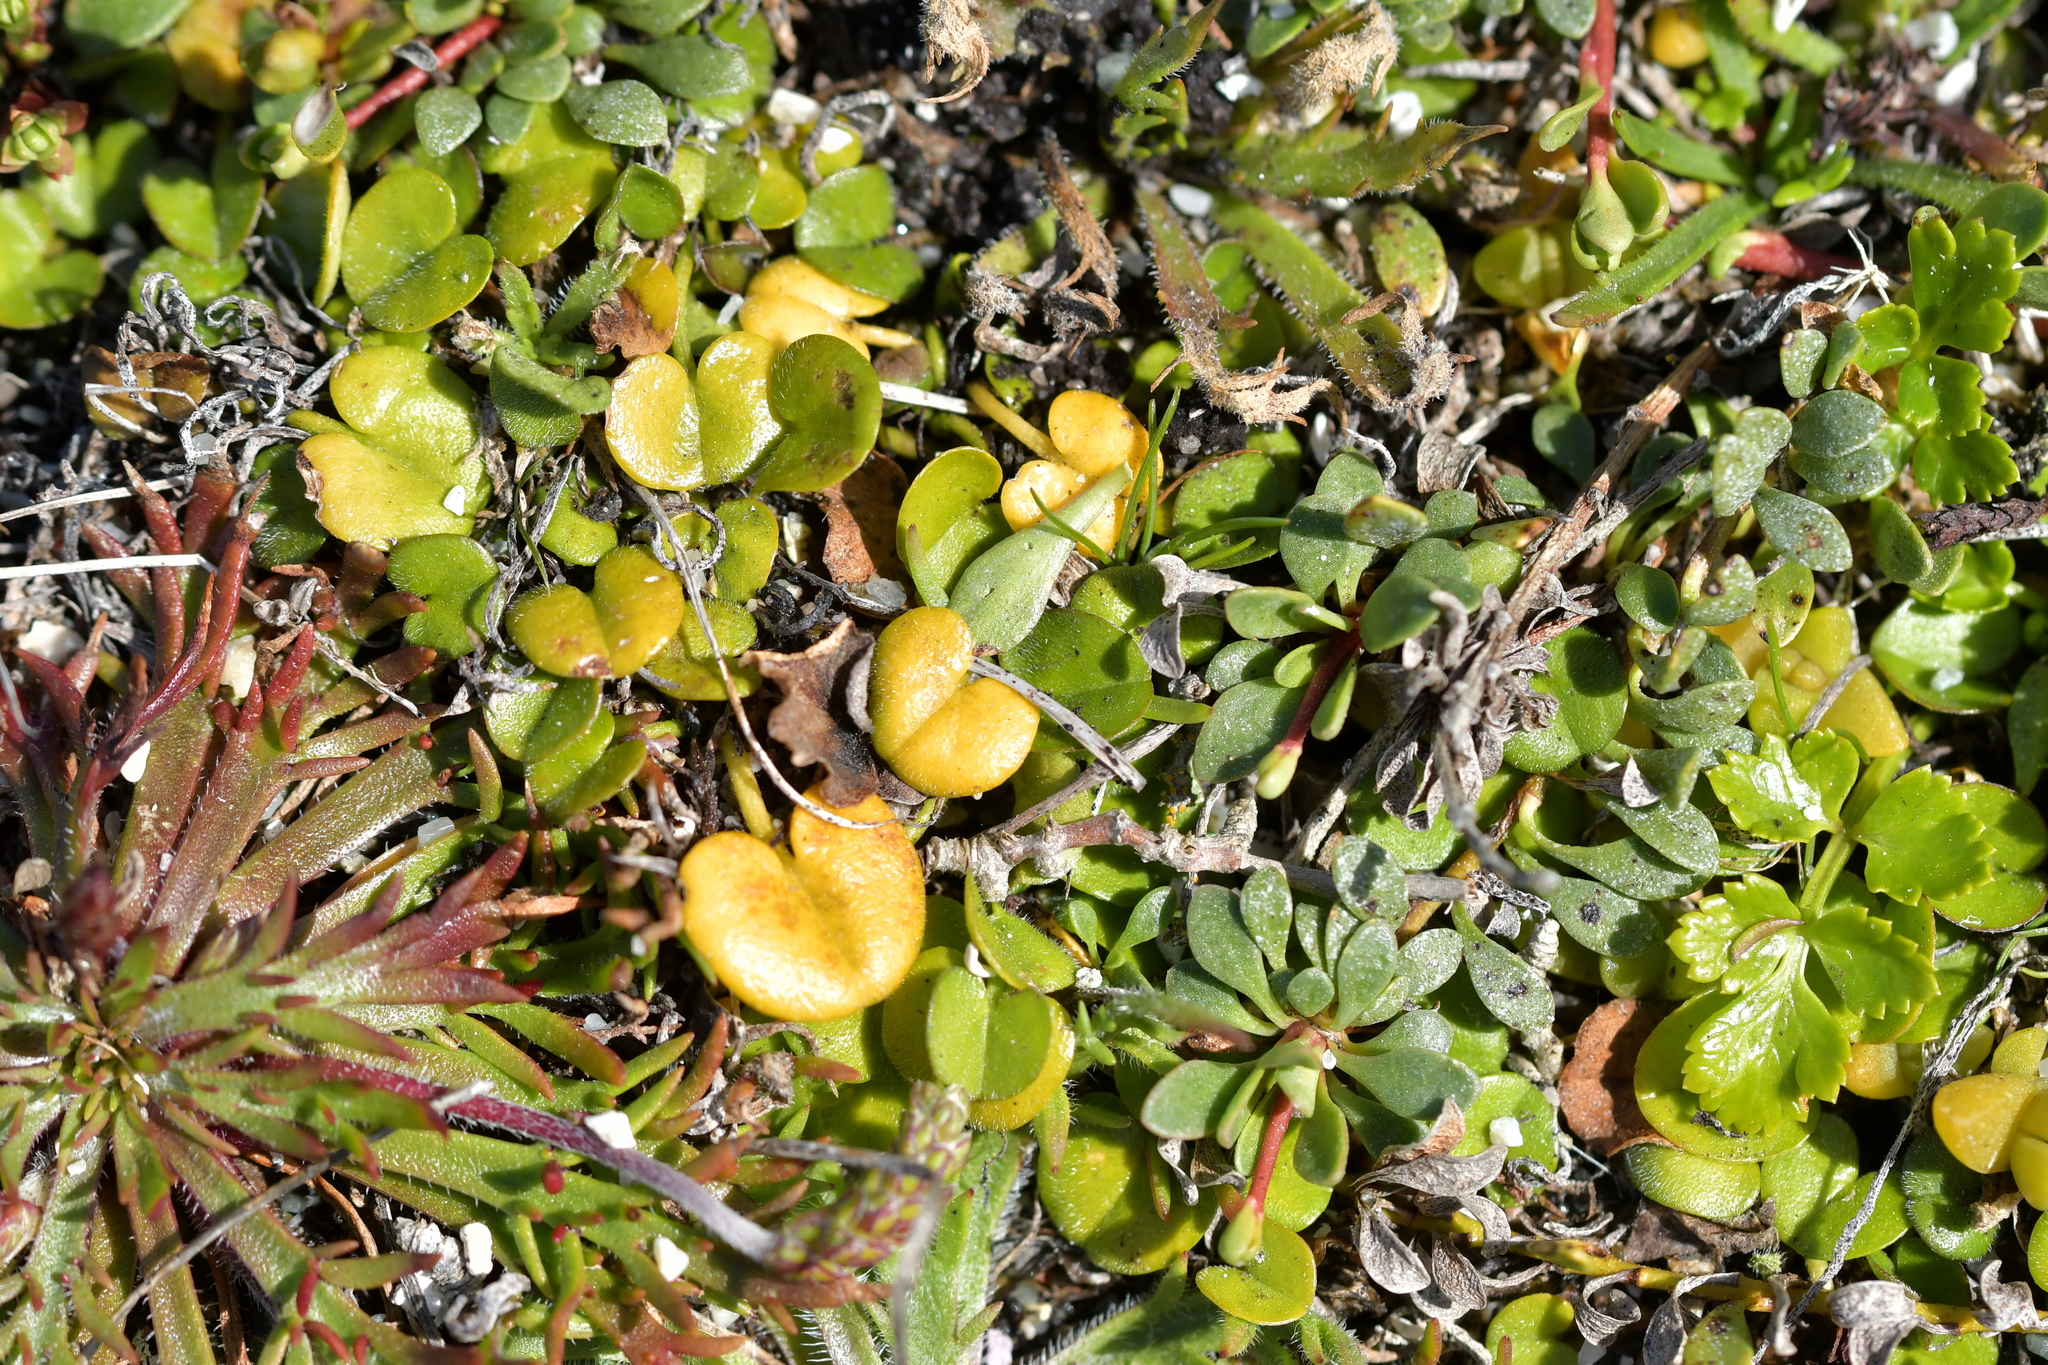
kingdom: Plantae
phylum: Tracheophyta
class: Magnoliopsida
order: Solanales
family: Convolvulaceae
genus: Dichondra
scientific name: Dichondra brevifolia
